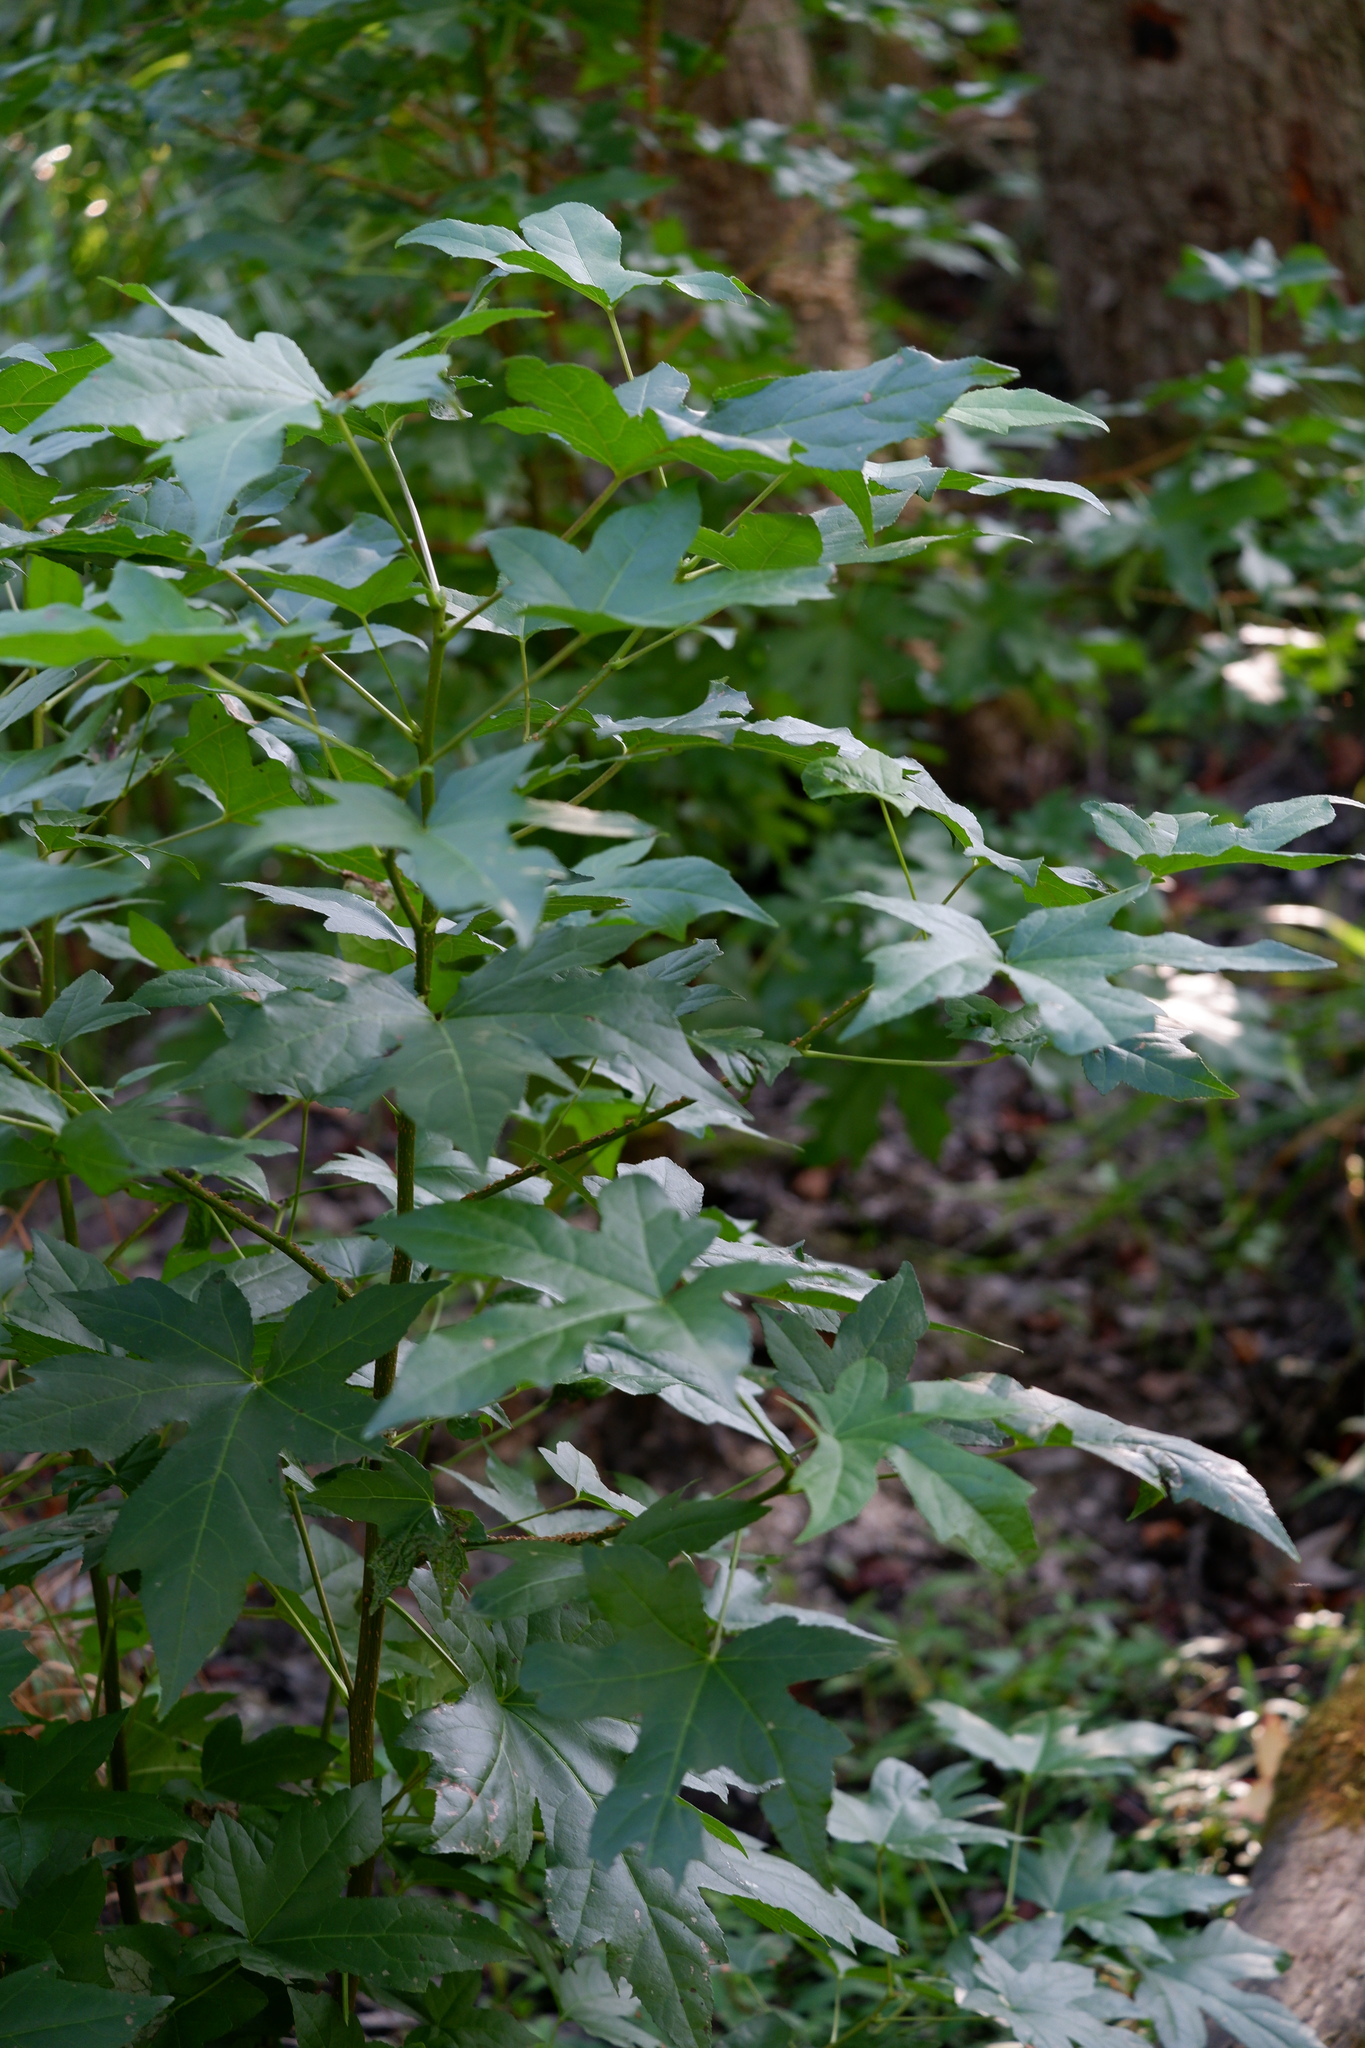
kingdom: Plantae
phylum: Tracheophyta
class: Magnoliopsida
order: Saxifragales
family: Altingiaceae
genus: Liquidambar
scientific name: Liquidambar styraciflua
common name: Sweet gum
